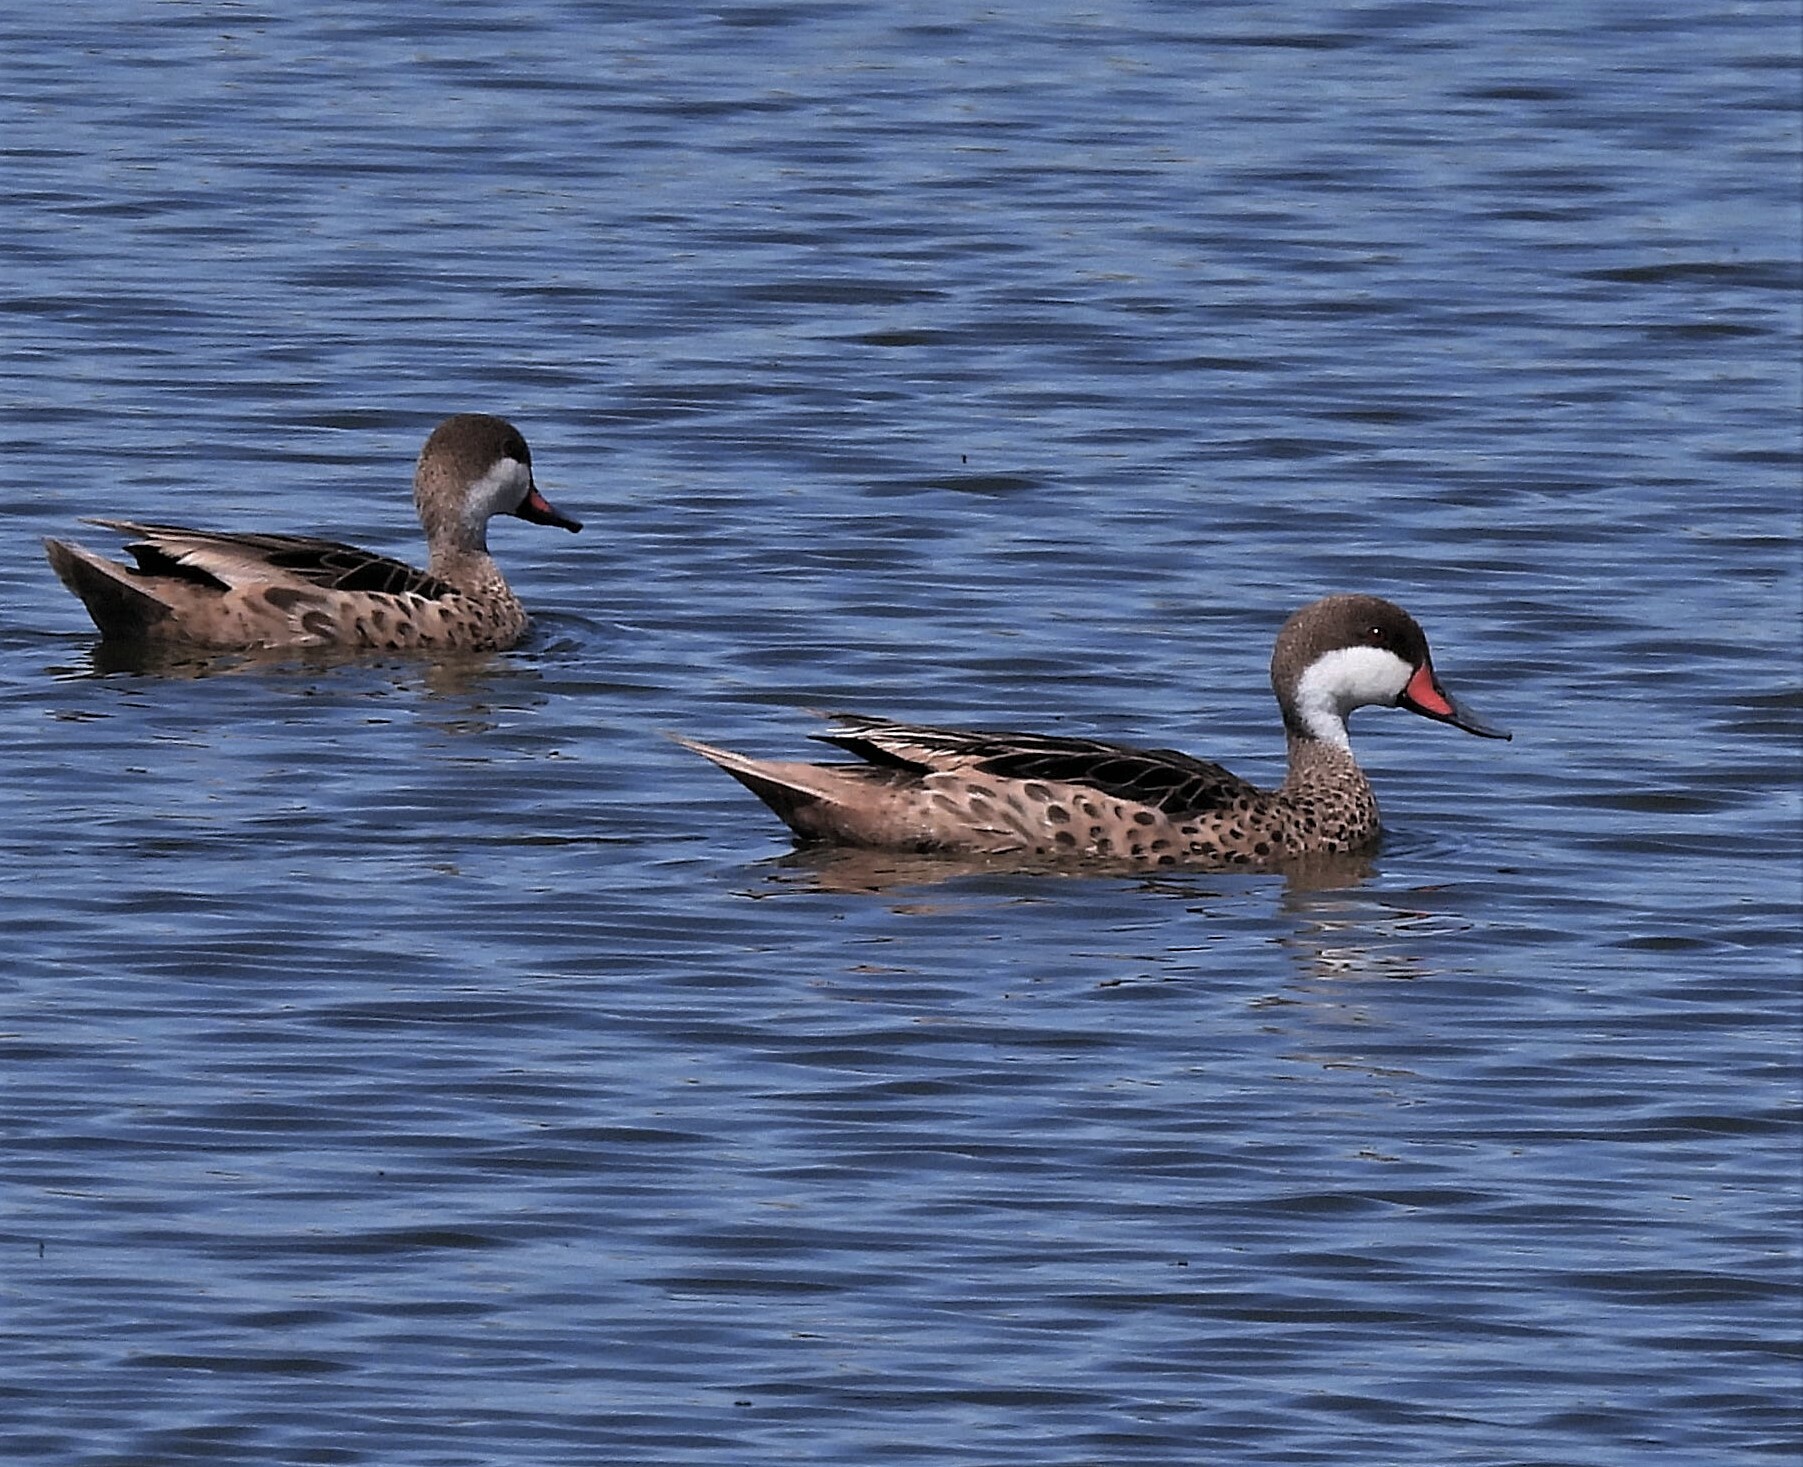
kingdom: Animalia
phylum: Chordata
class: Aves
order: Anseriformes
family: Anatidae
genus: Anas
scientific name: Anas bahamensis
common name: White-cheeked pintail
